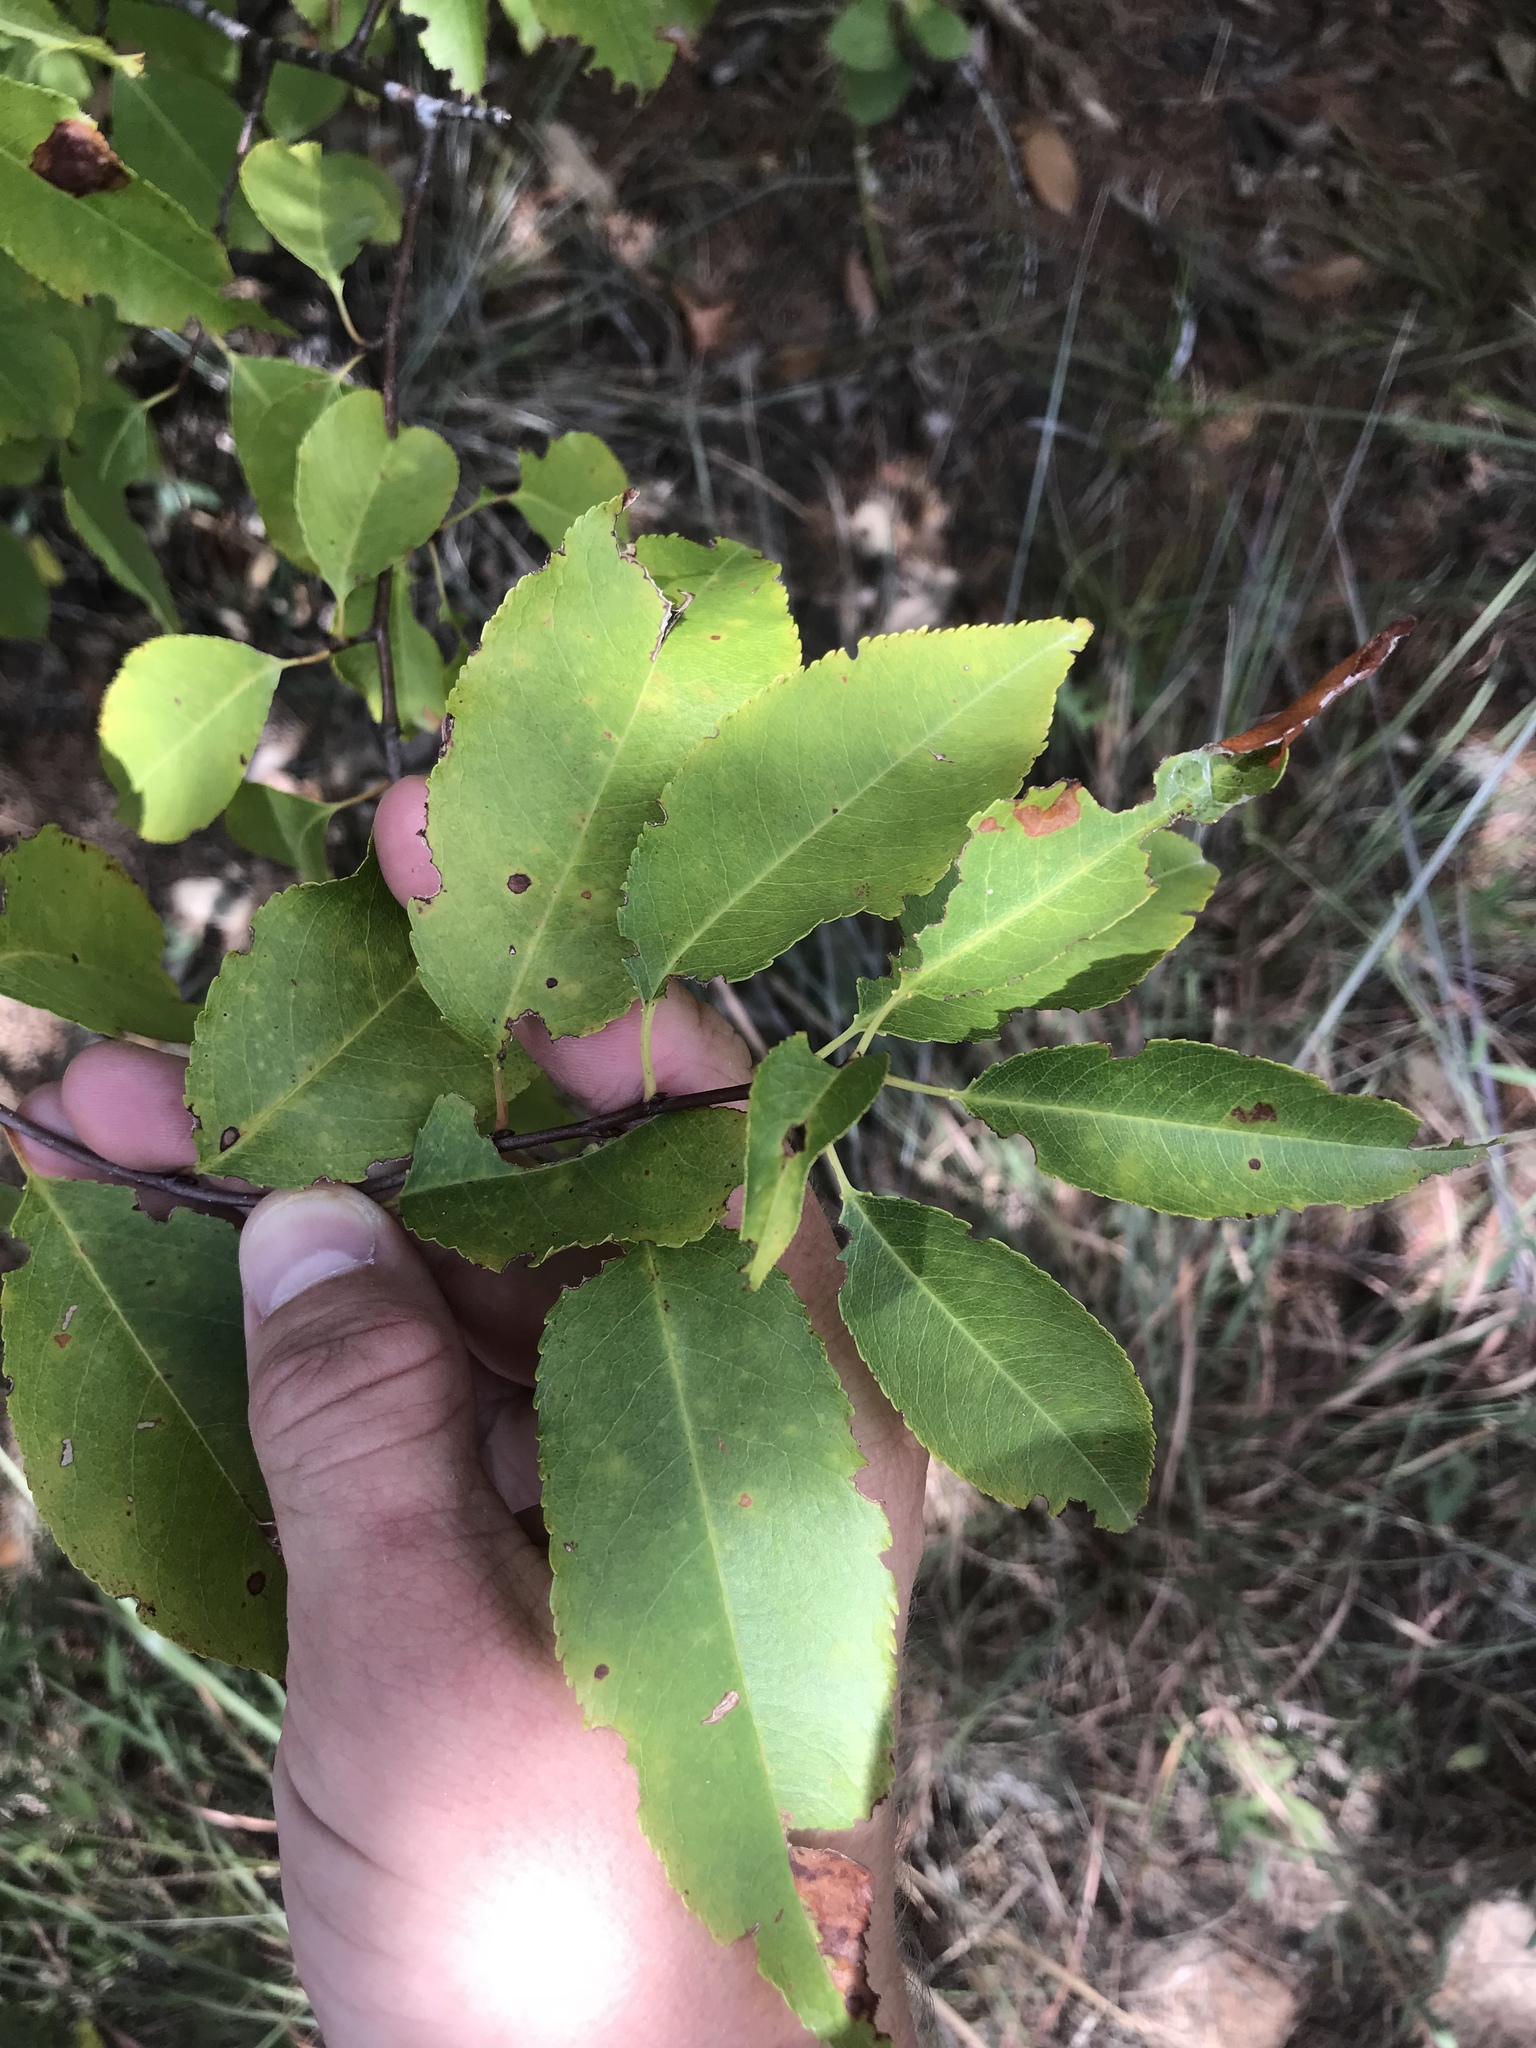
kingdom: Plantae
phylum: Tracheophyta
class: Magnoliopsida
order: Rosales
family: Rosaceae
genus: Prunus
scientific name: Prunus serotina
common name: Black cherry
